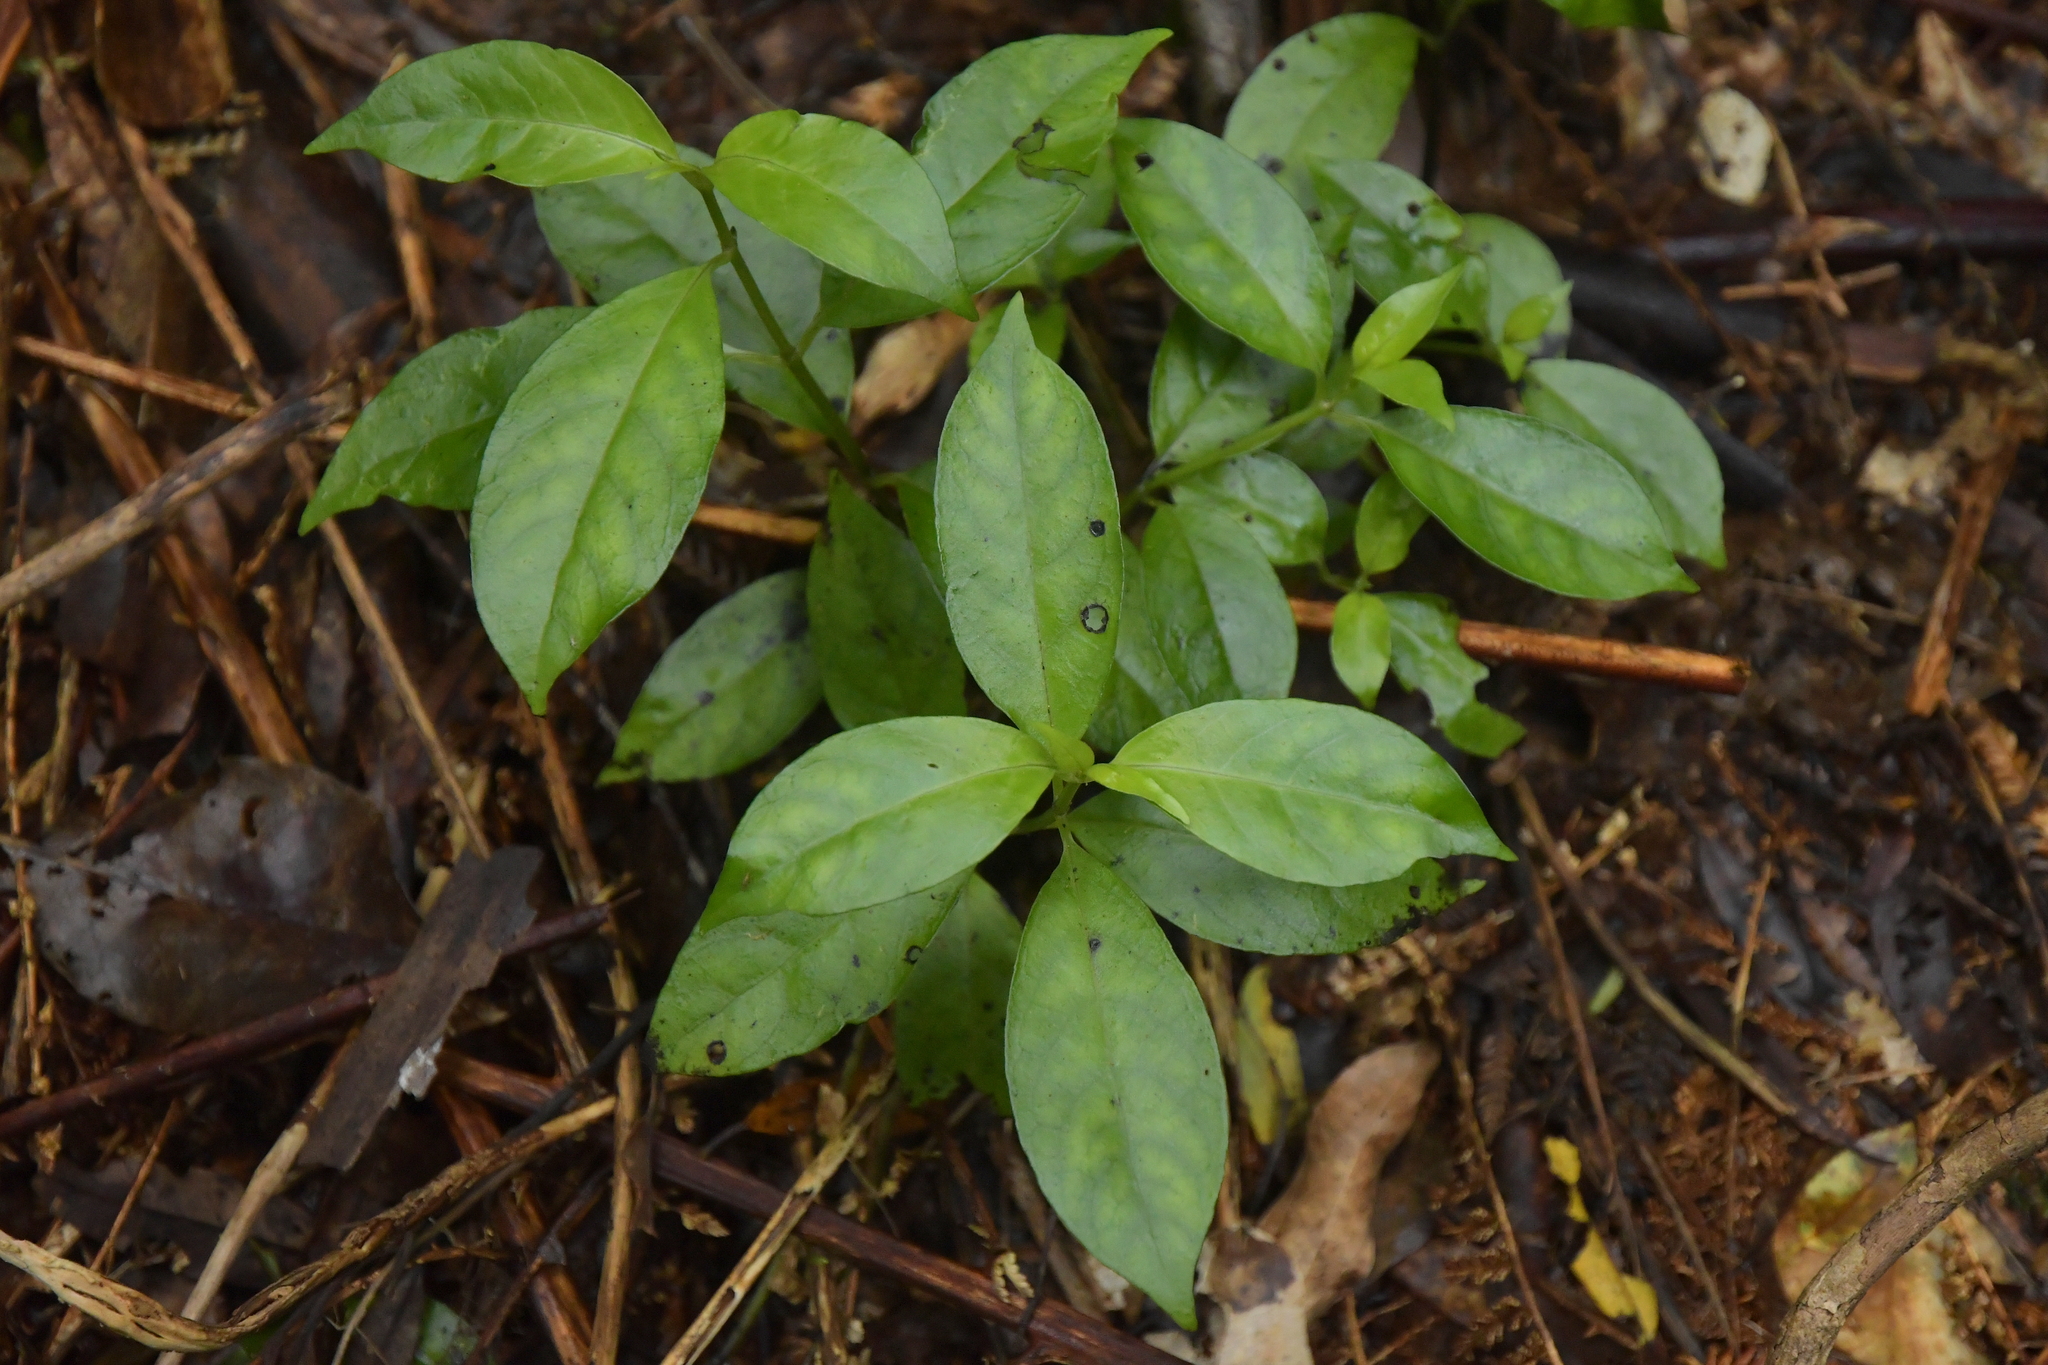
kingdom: Plantae
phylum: Tracheophyta
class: Magnoliopsida
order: Gentianales
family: Loganiaceae
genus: Geniostoma
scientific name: Geniostoma ligustrifolium
